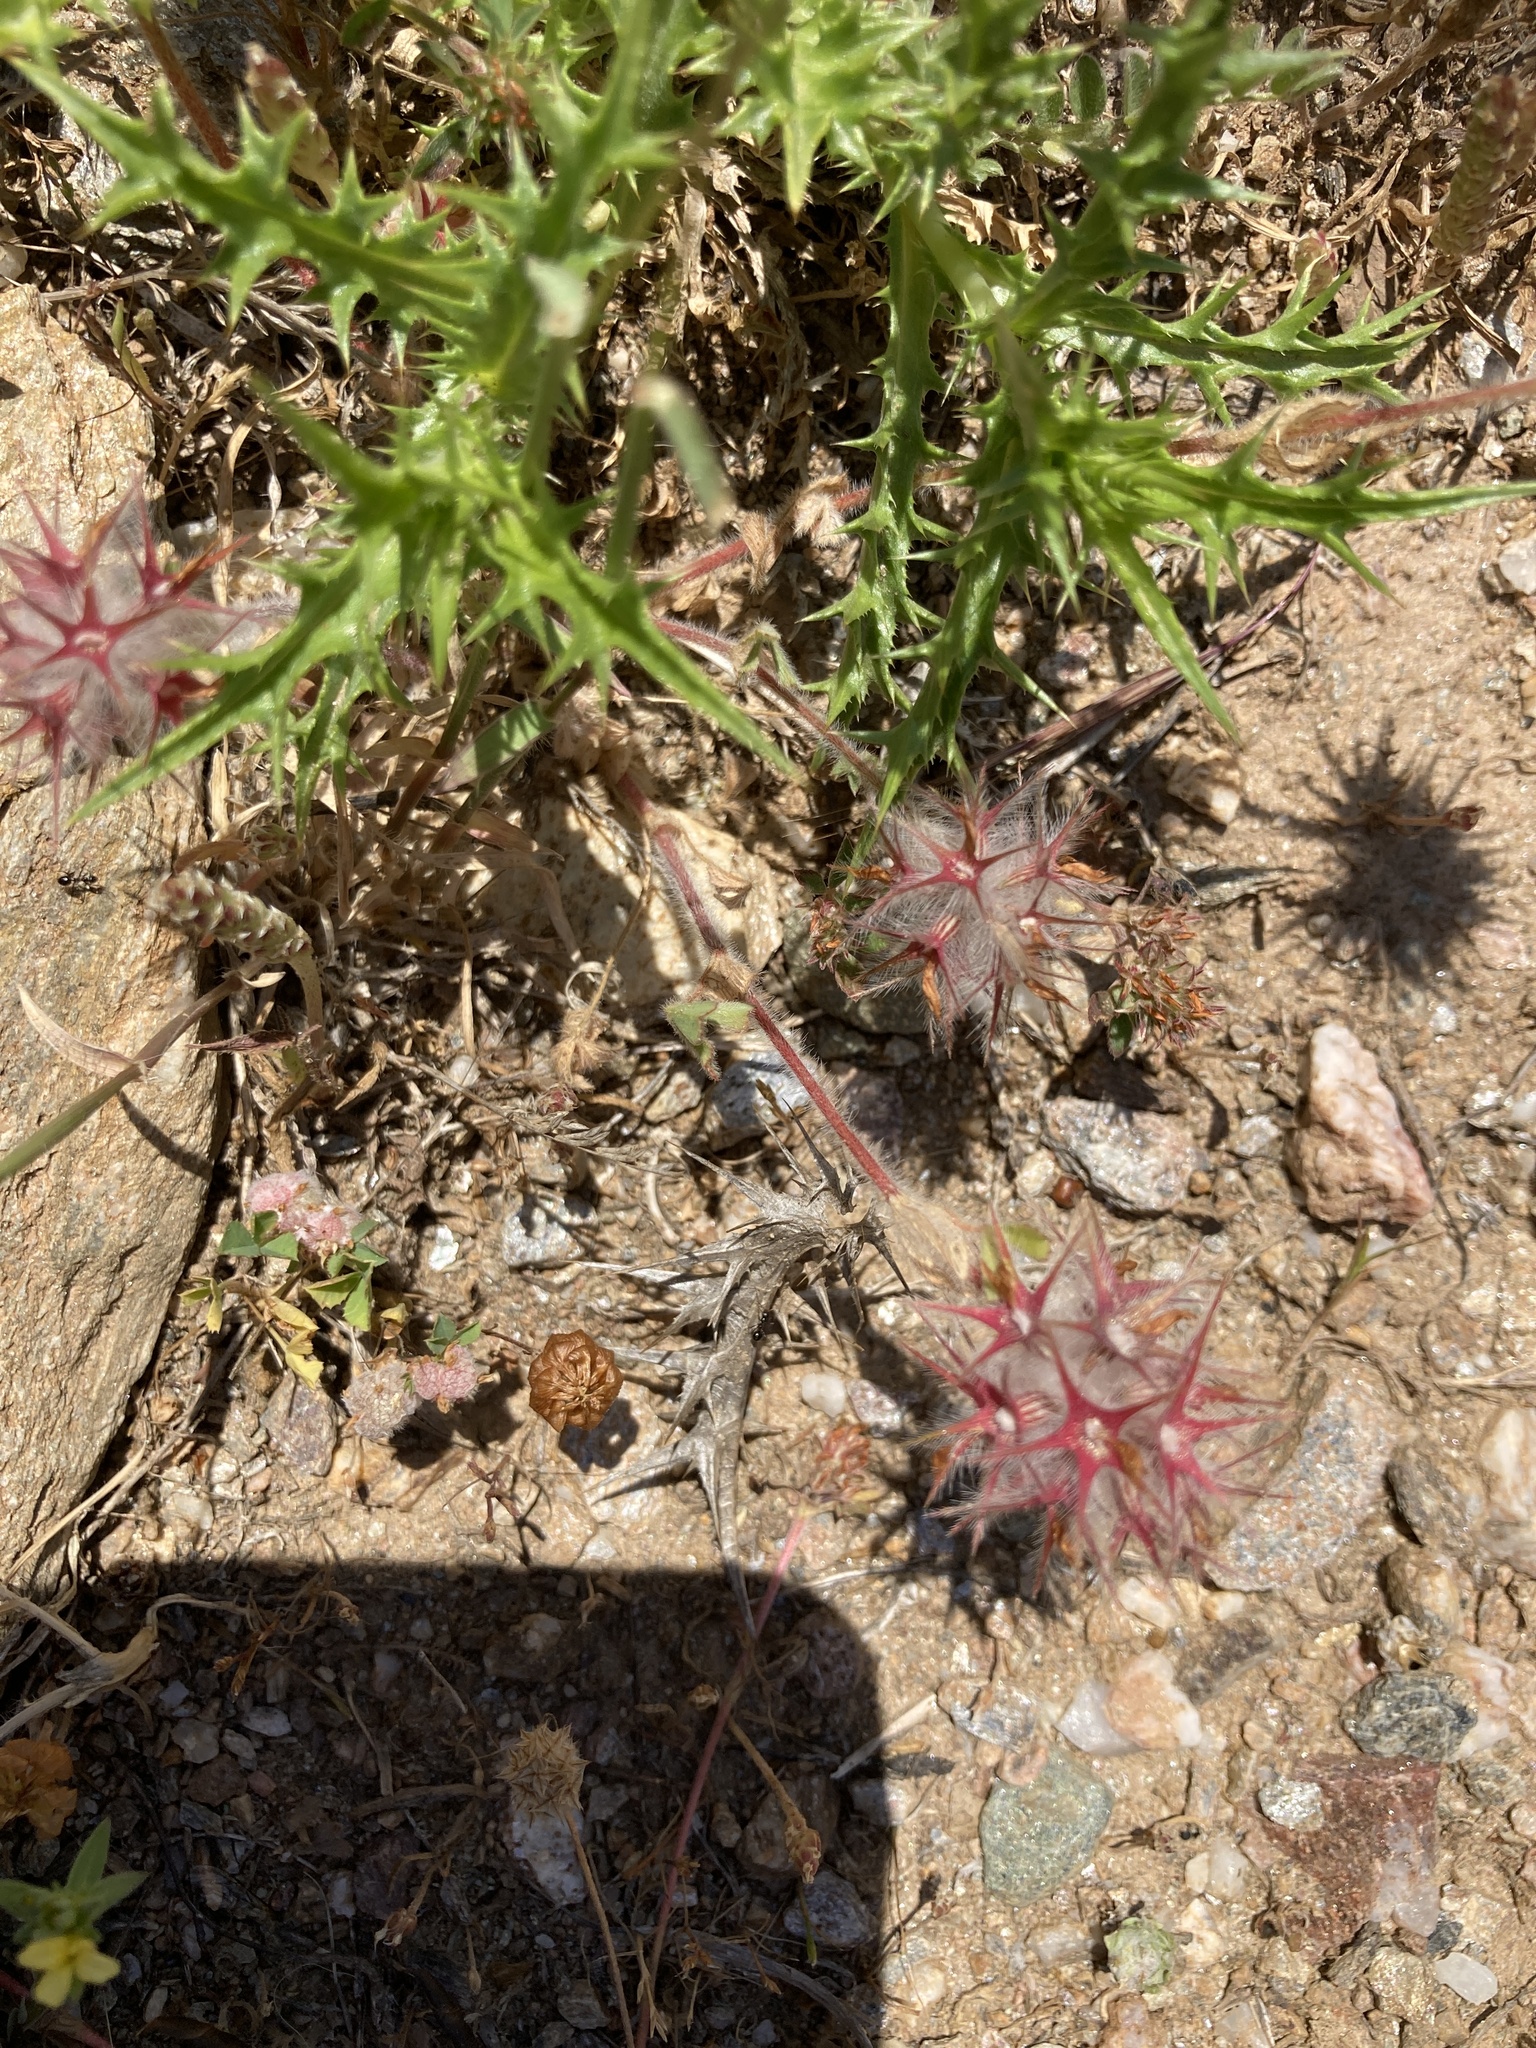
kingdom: Plantae
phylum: Tracheophyta
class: Magnoliopsida
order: Fabales
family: Fabaceae
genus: Trifolium
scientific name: Trifolium stellatum
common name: Starry clover
